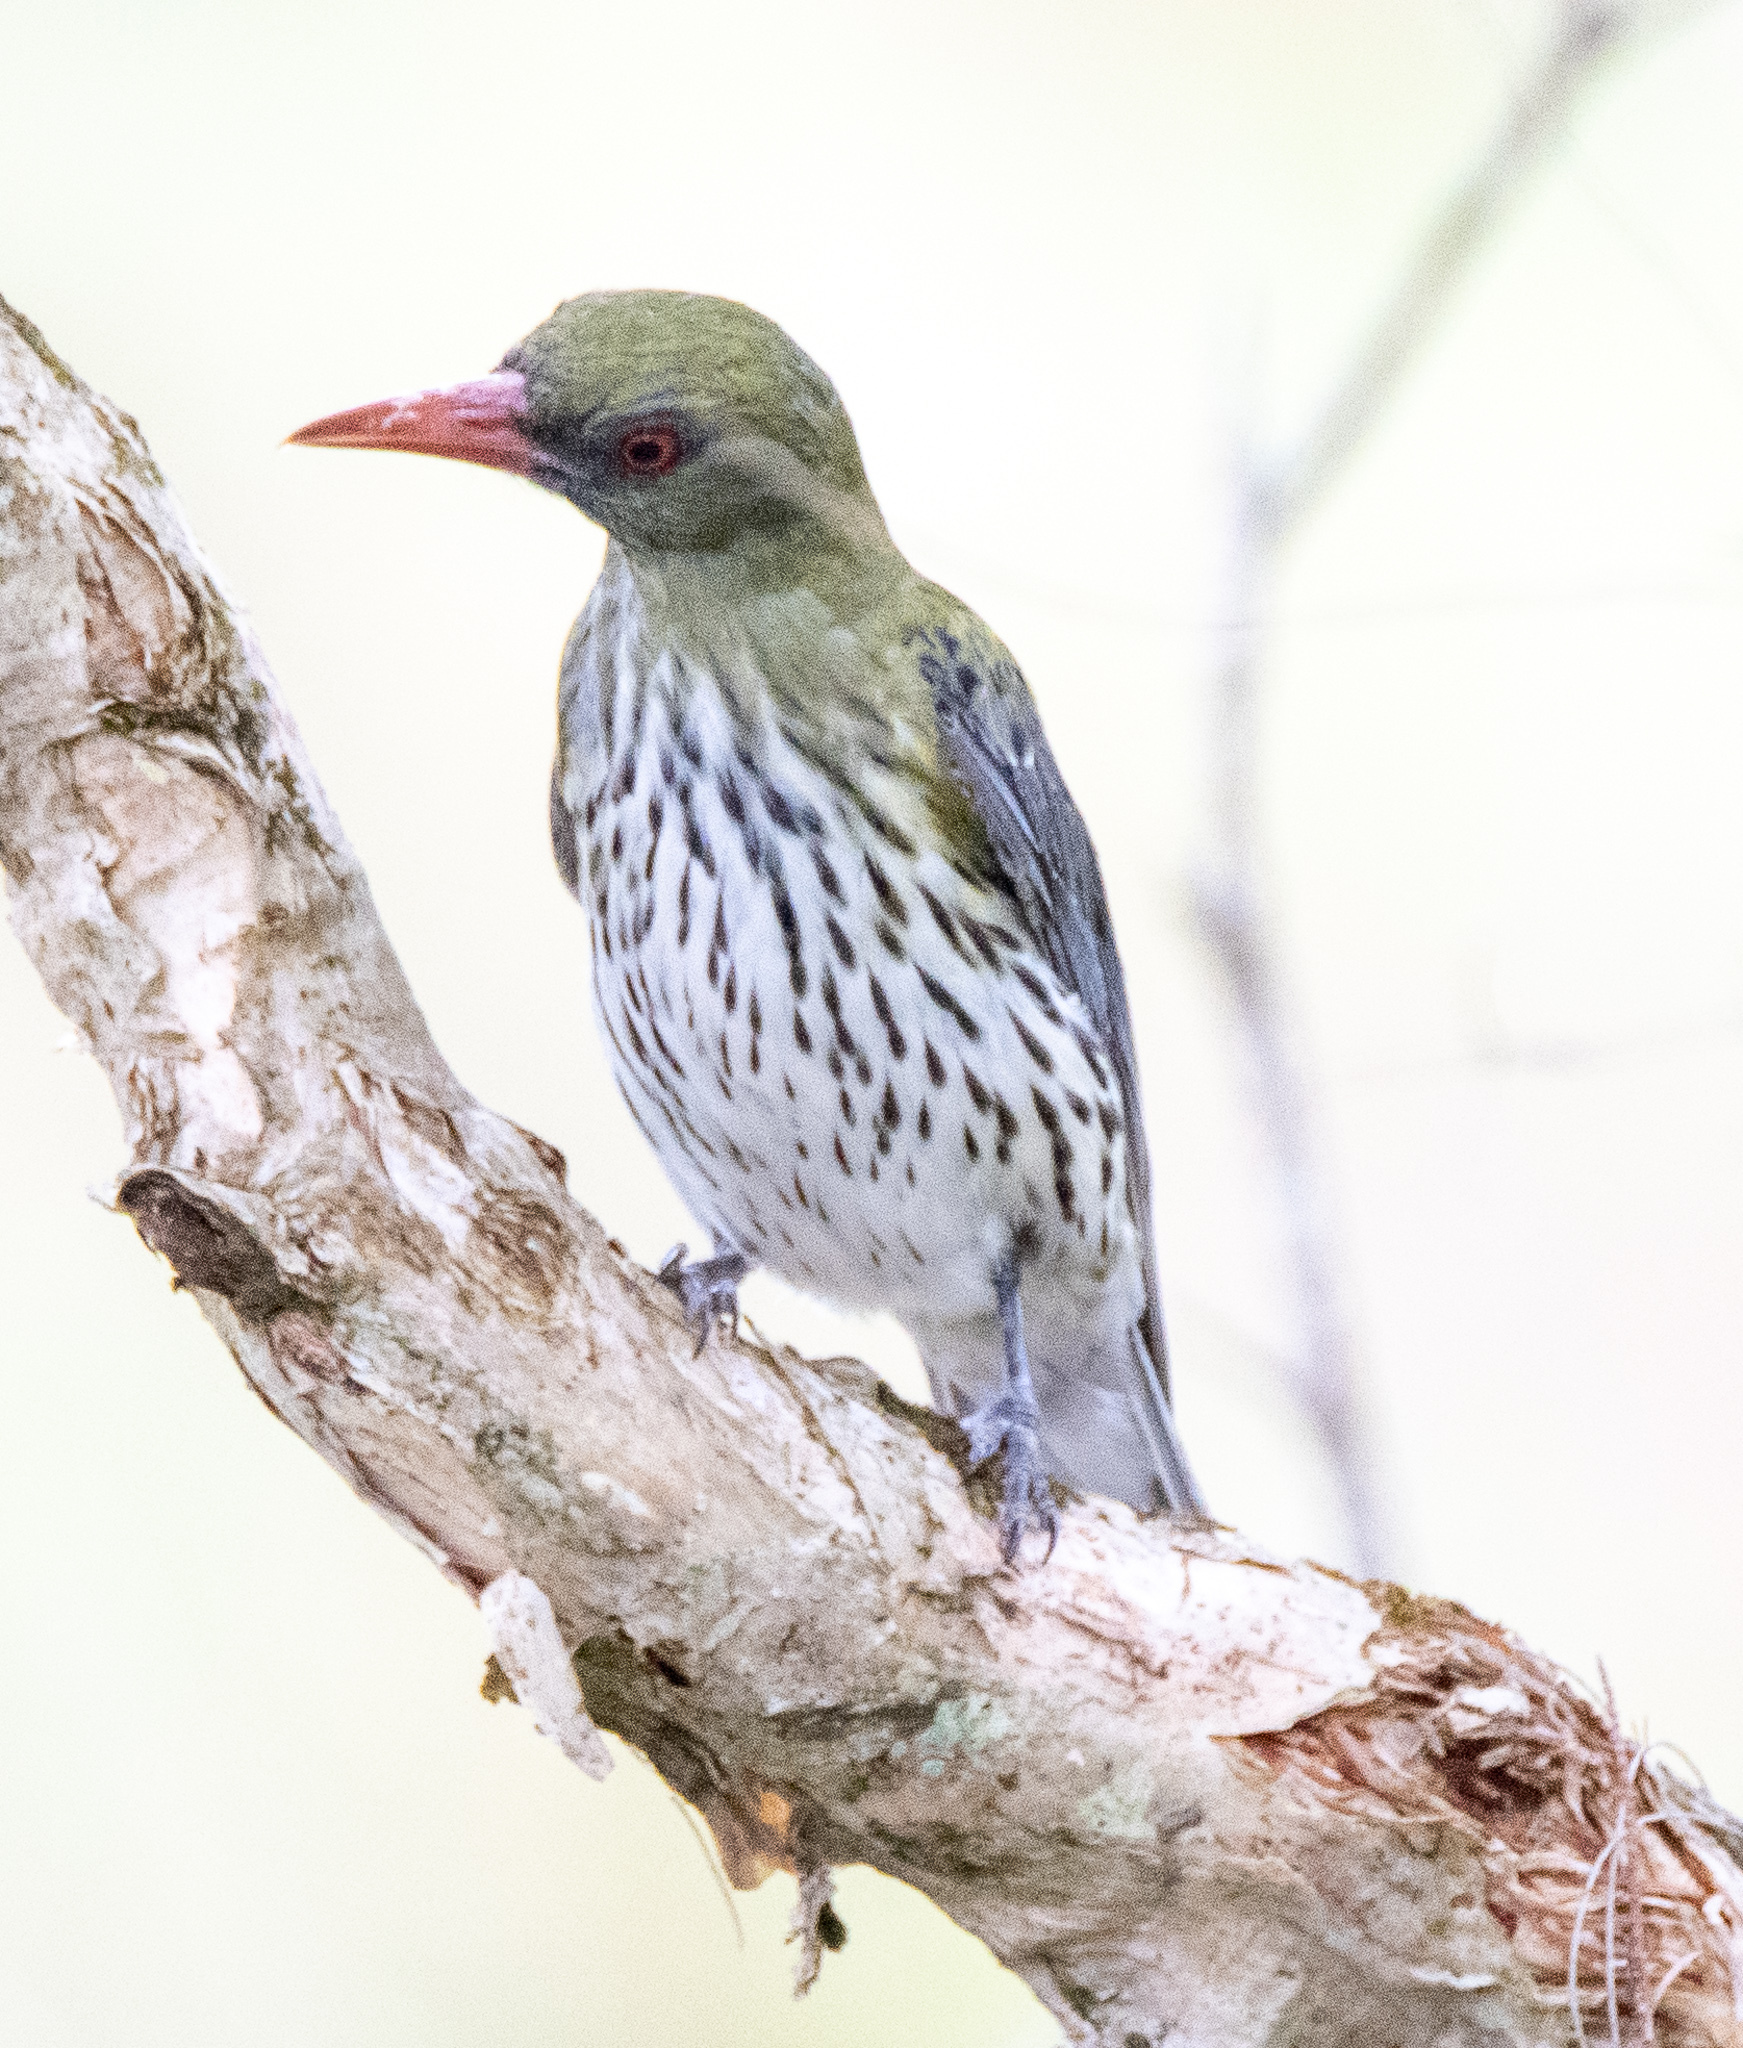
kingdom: Animalia
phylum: Chordata
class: Aves
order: Passeriformes
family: Oriolidae
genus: Oriolus
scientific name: Oriolus sagittatus
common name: Olive-backed oriole
